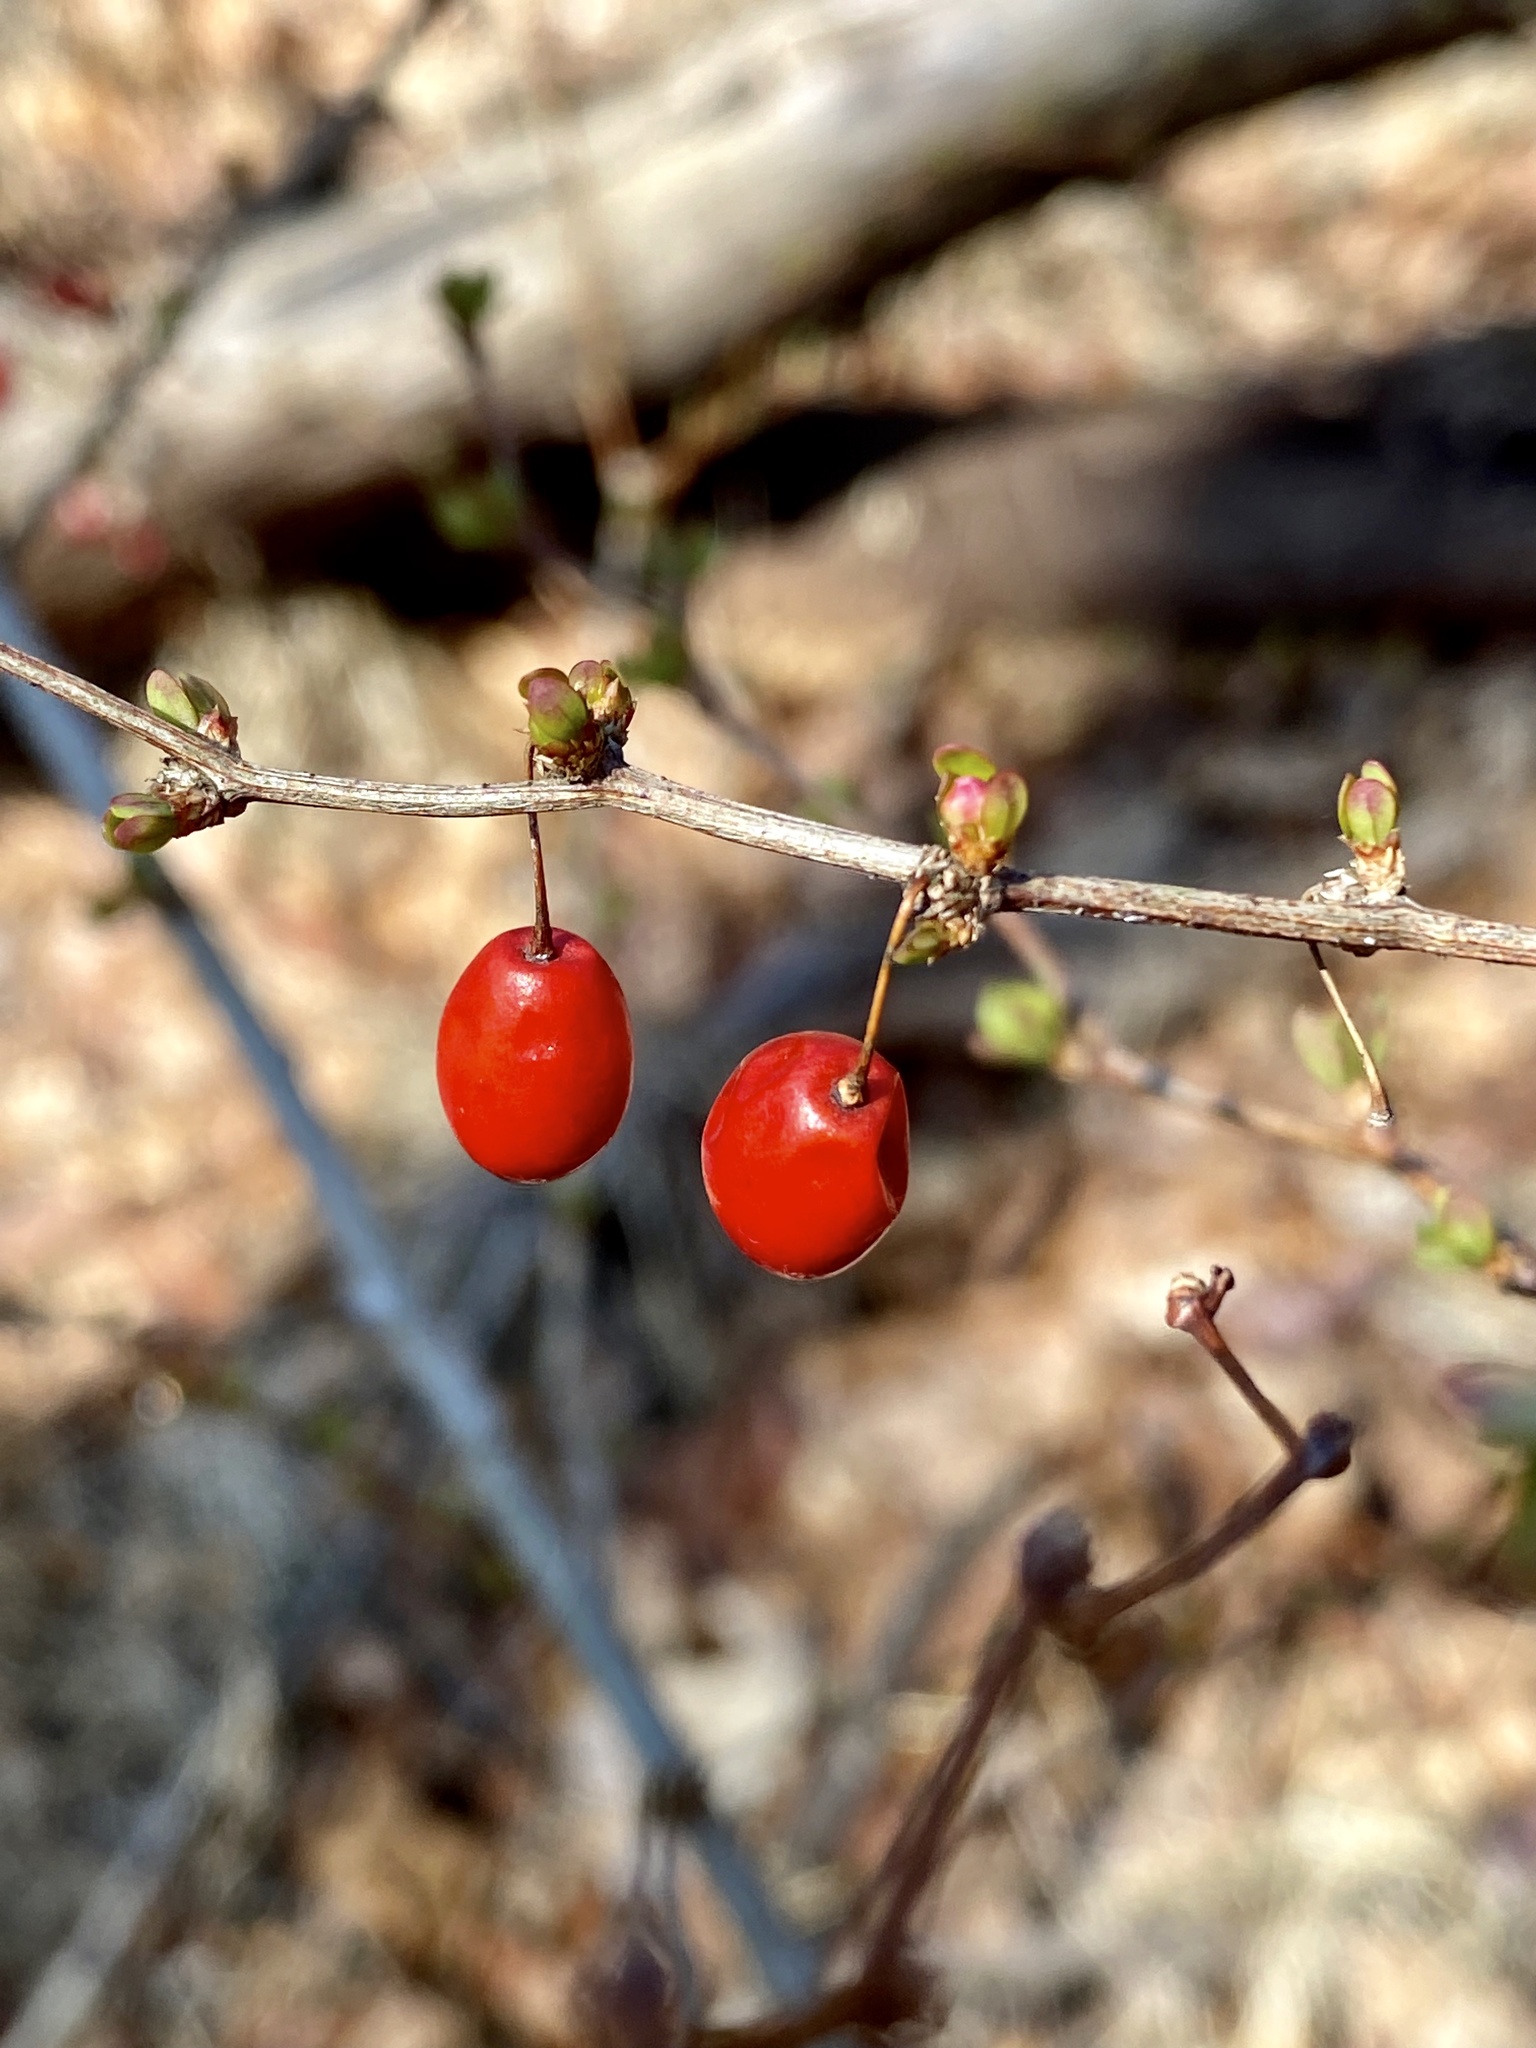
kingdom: Plantae
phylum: Tracheophyta
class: Magnoliopsida
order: Ranunculales
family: Berberidaceae
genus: Berberis
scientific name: Berberis thunbergii
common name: Japanese barberry
